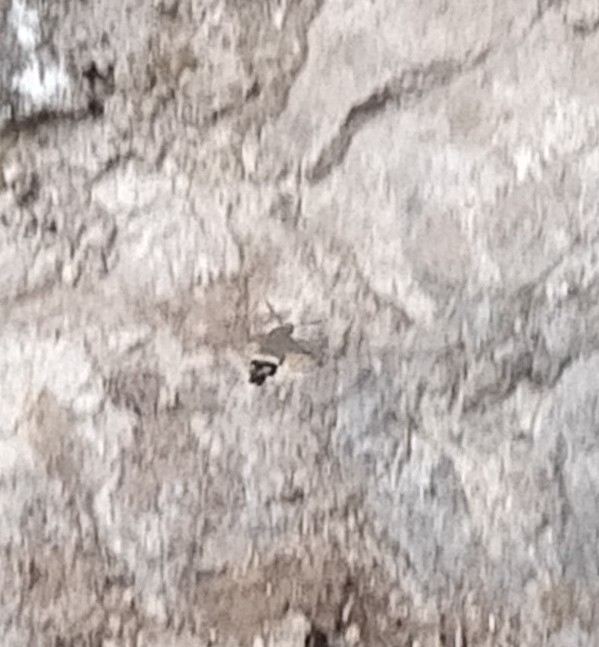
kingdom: Animalia
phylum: Arthropoda
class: Insecta
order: Lepidoptera
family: Sphingidae
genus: Macroglossum
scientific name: Macroglossum stellatarum
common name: Humming-bird hawk-moth
